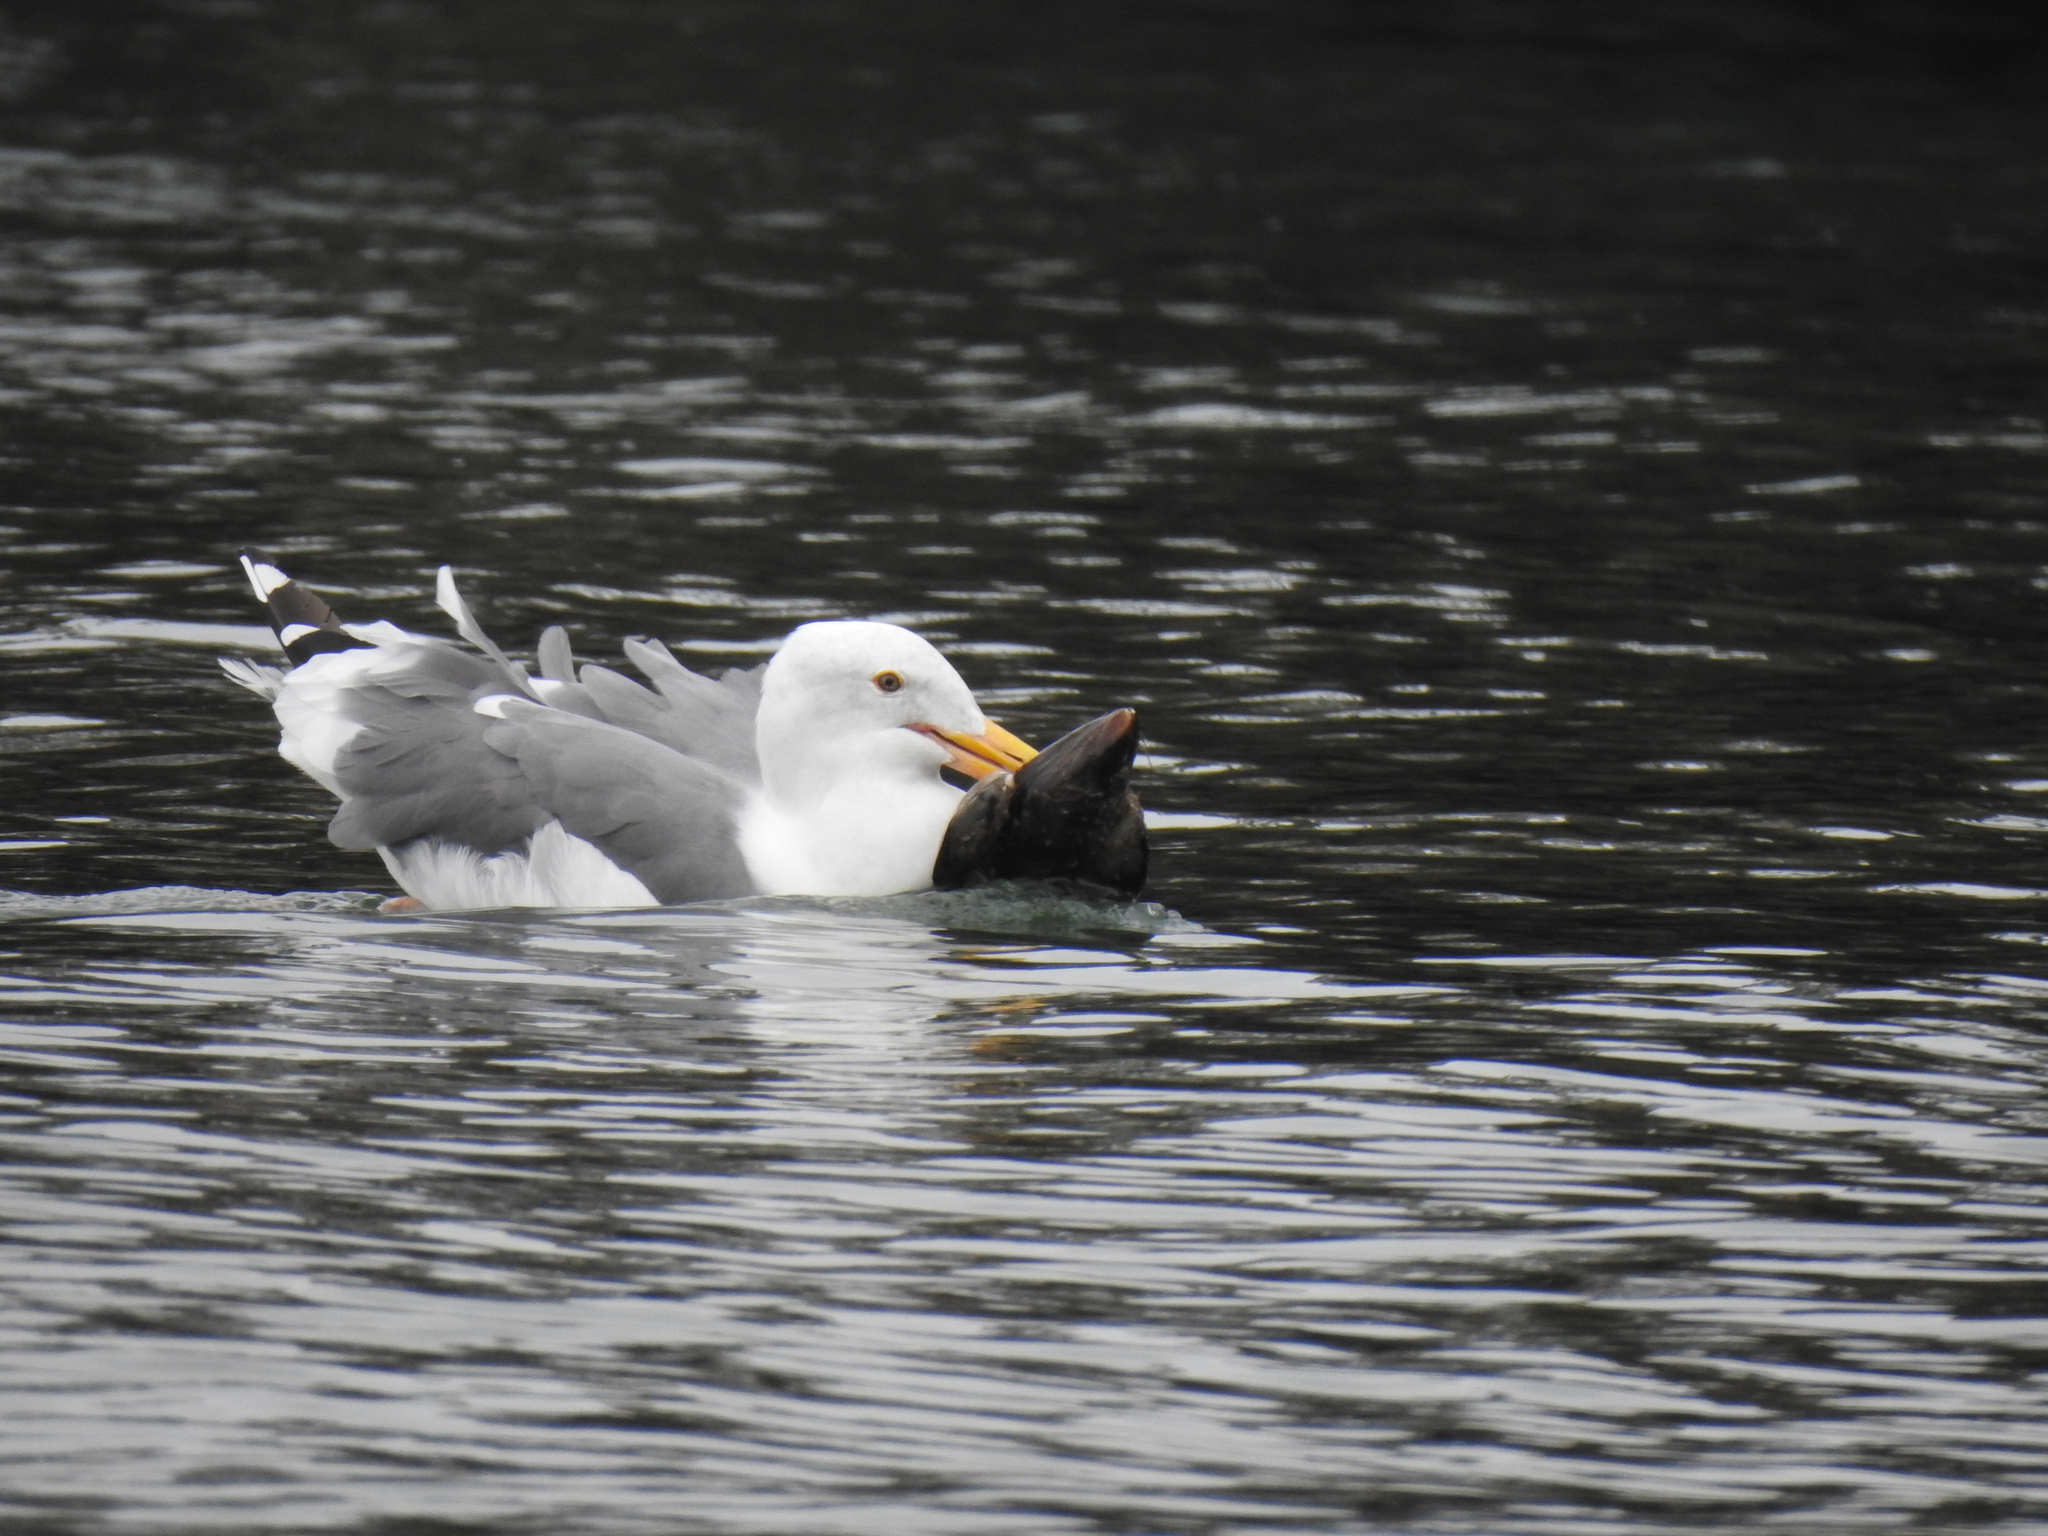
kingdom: Animalia
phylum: Chordata
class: Aves
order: Charadriiformes
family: Laridae
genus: Larus
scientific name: Larus occidentalis
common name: Western gull
